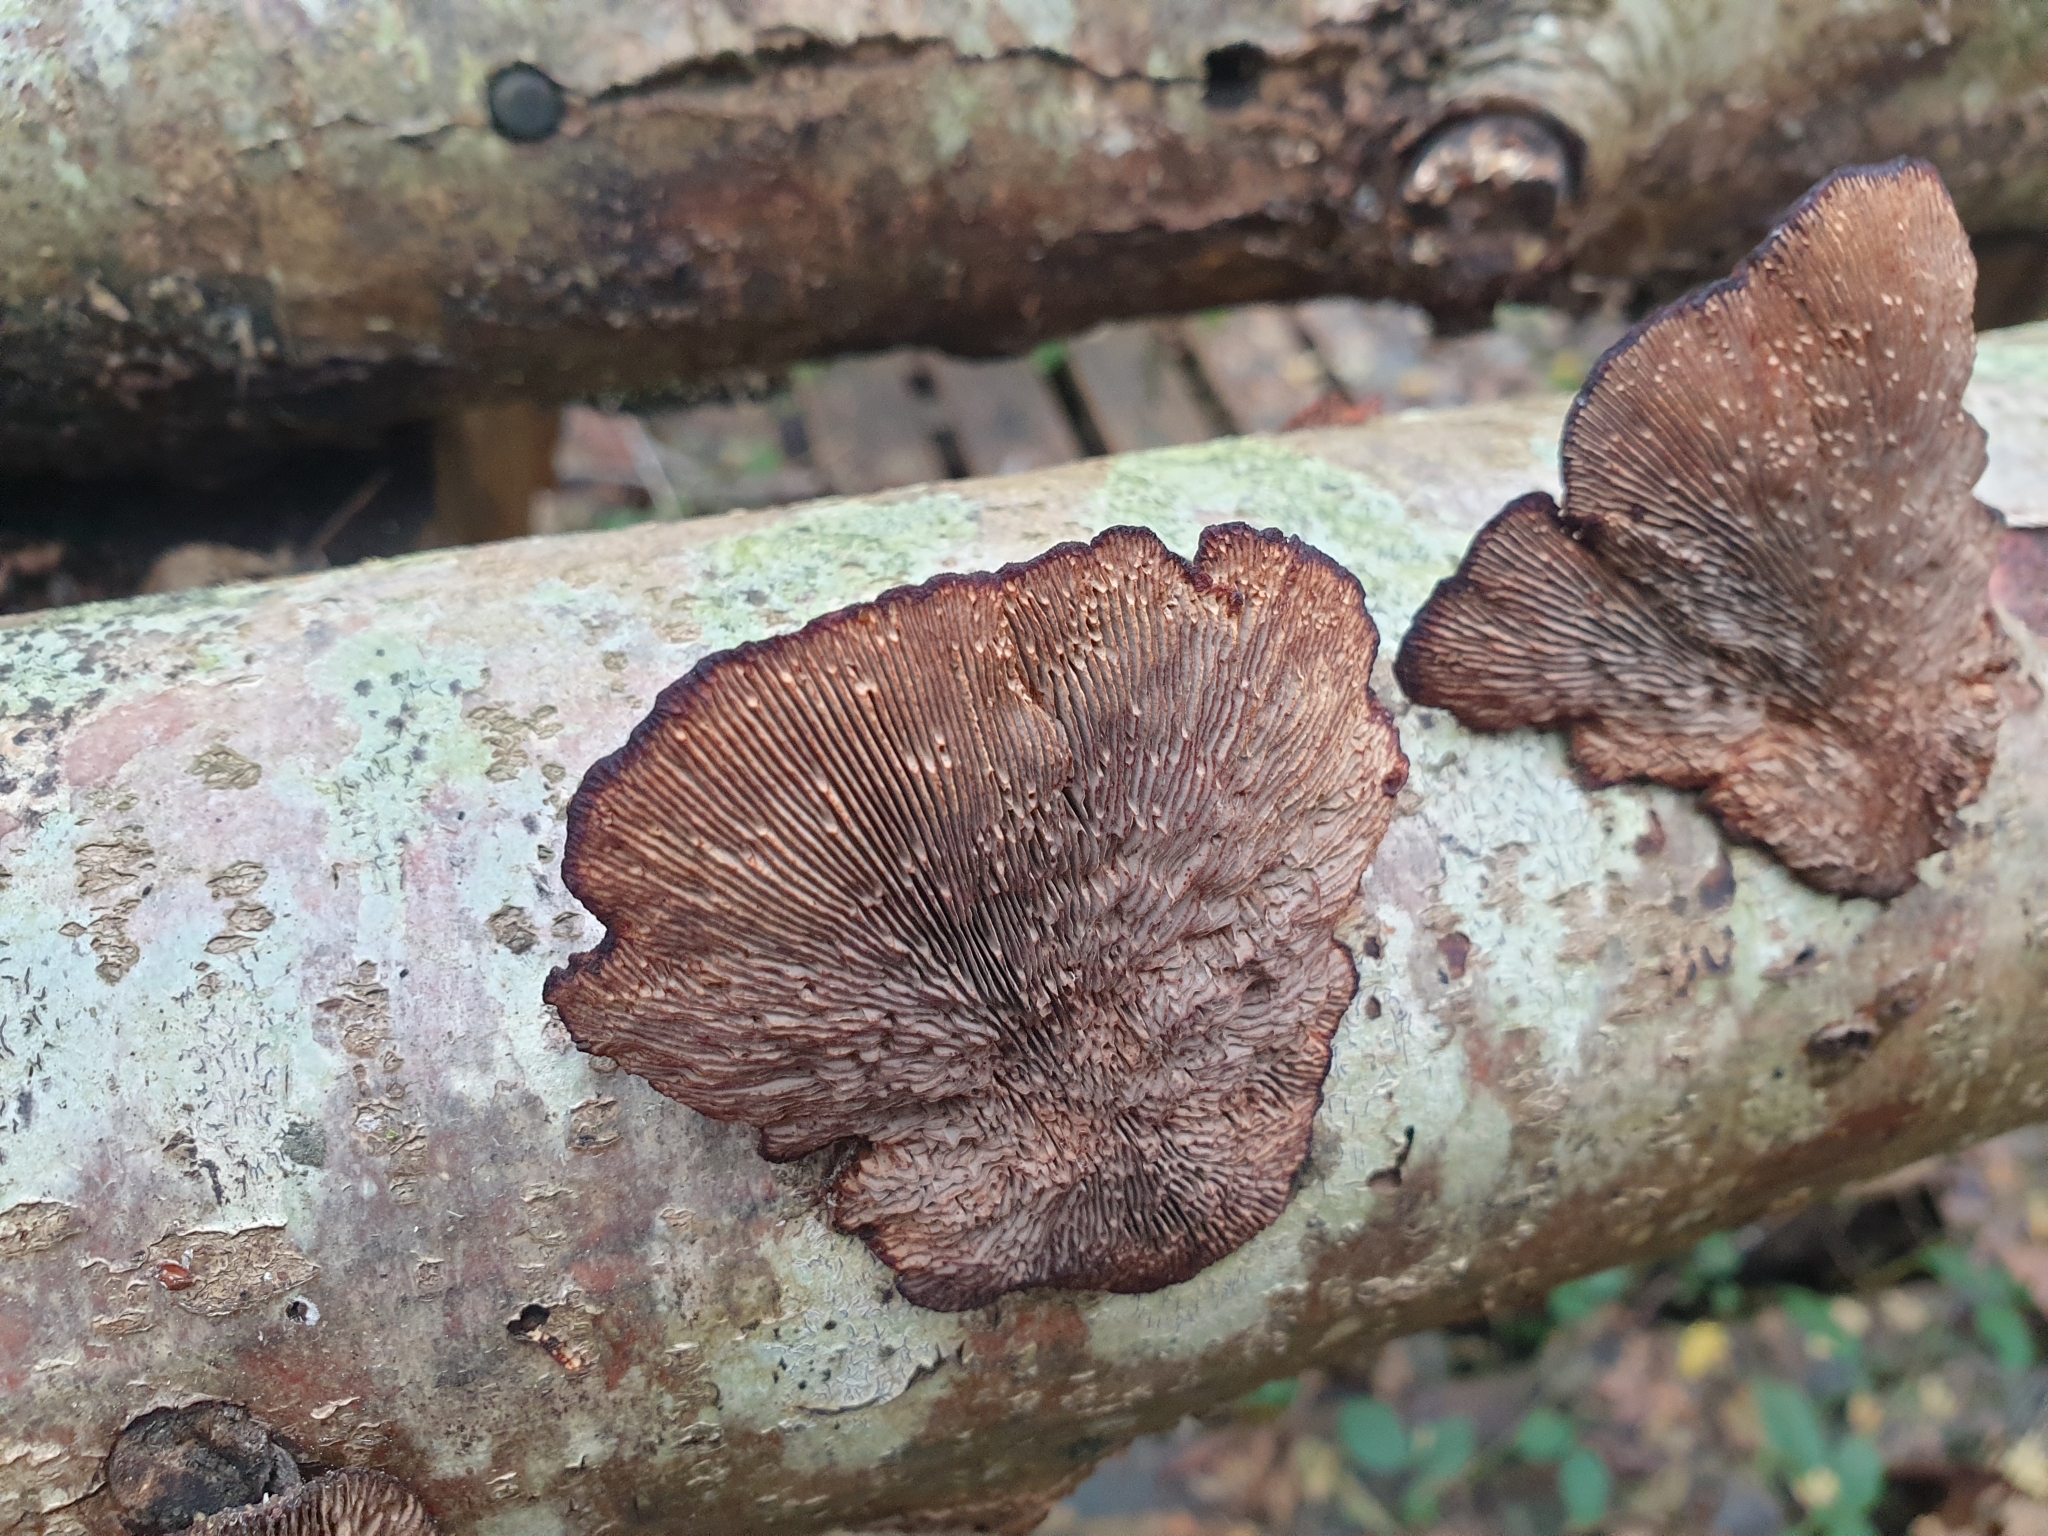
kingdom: Fungi
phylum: Basidiomycota
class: Agaricomycetes
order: Polyporales
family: Polyporaceae
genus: Daedaleopsis
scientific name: Daedaleopsis confragosa
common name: Blushing bracket
